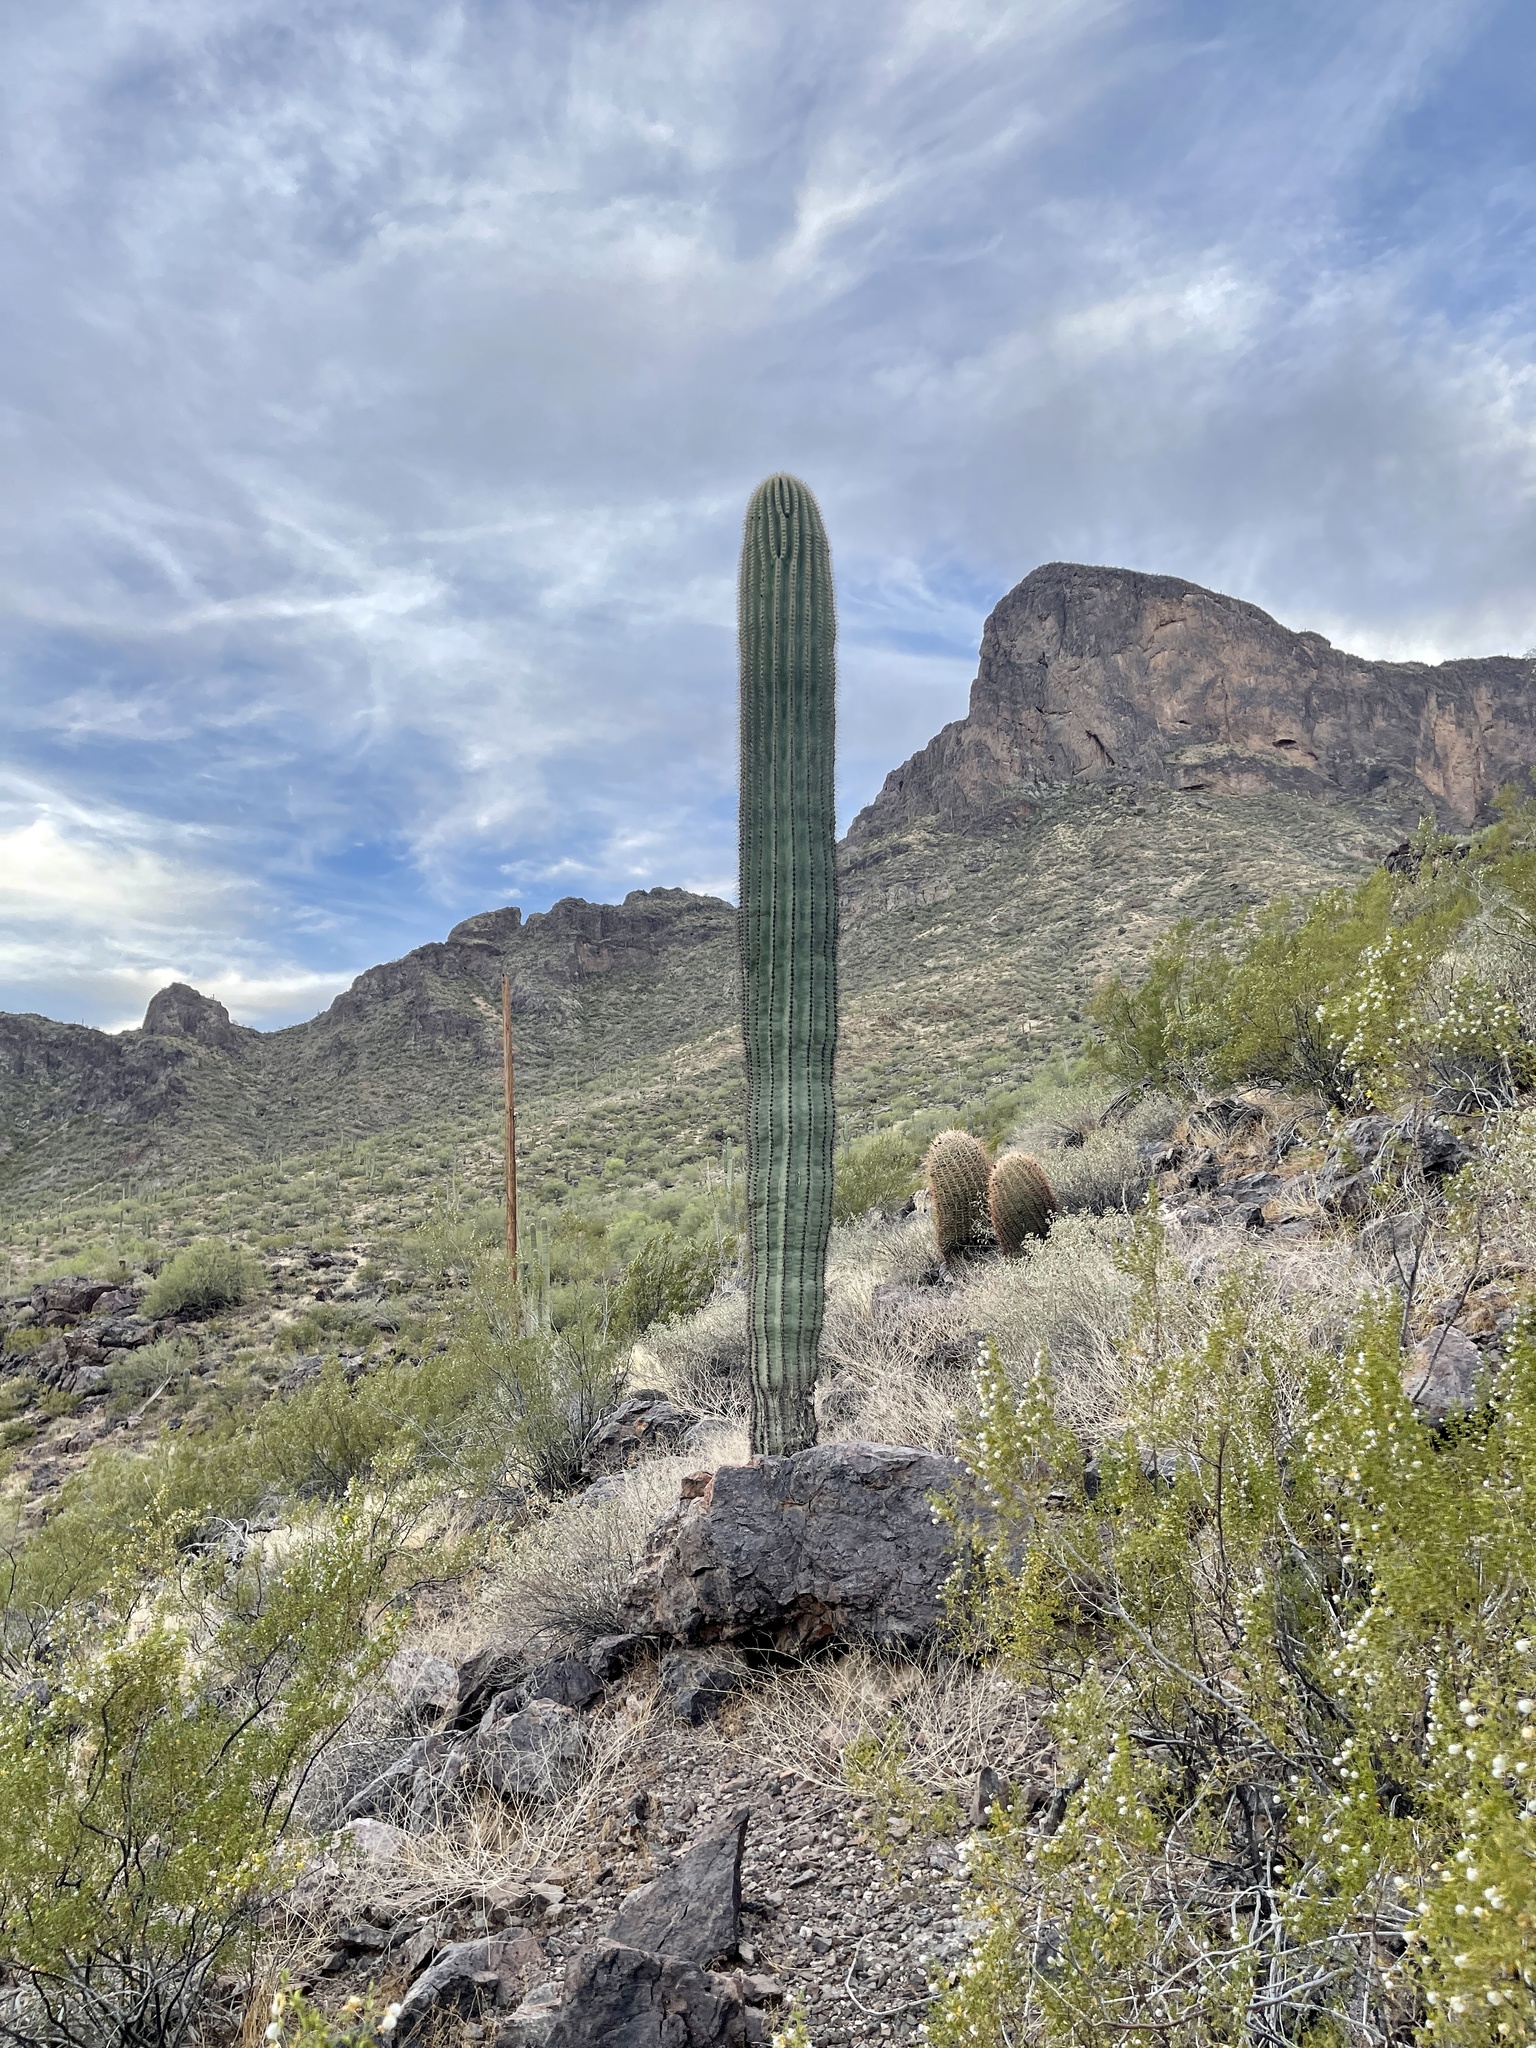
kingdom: Plantae
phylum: Tracheophyta
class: Magnoliopsida
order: Caryophyllales
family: Cactaceae
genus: Carnegiea
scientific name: Carnegiea gigantea
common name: Saguaro
